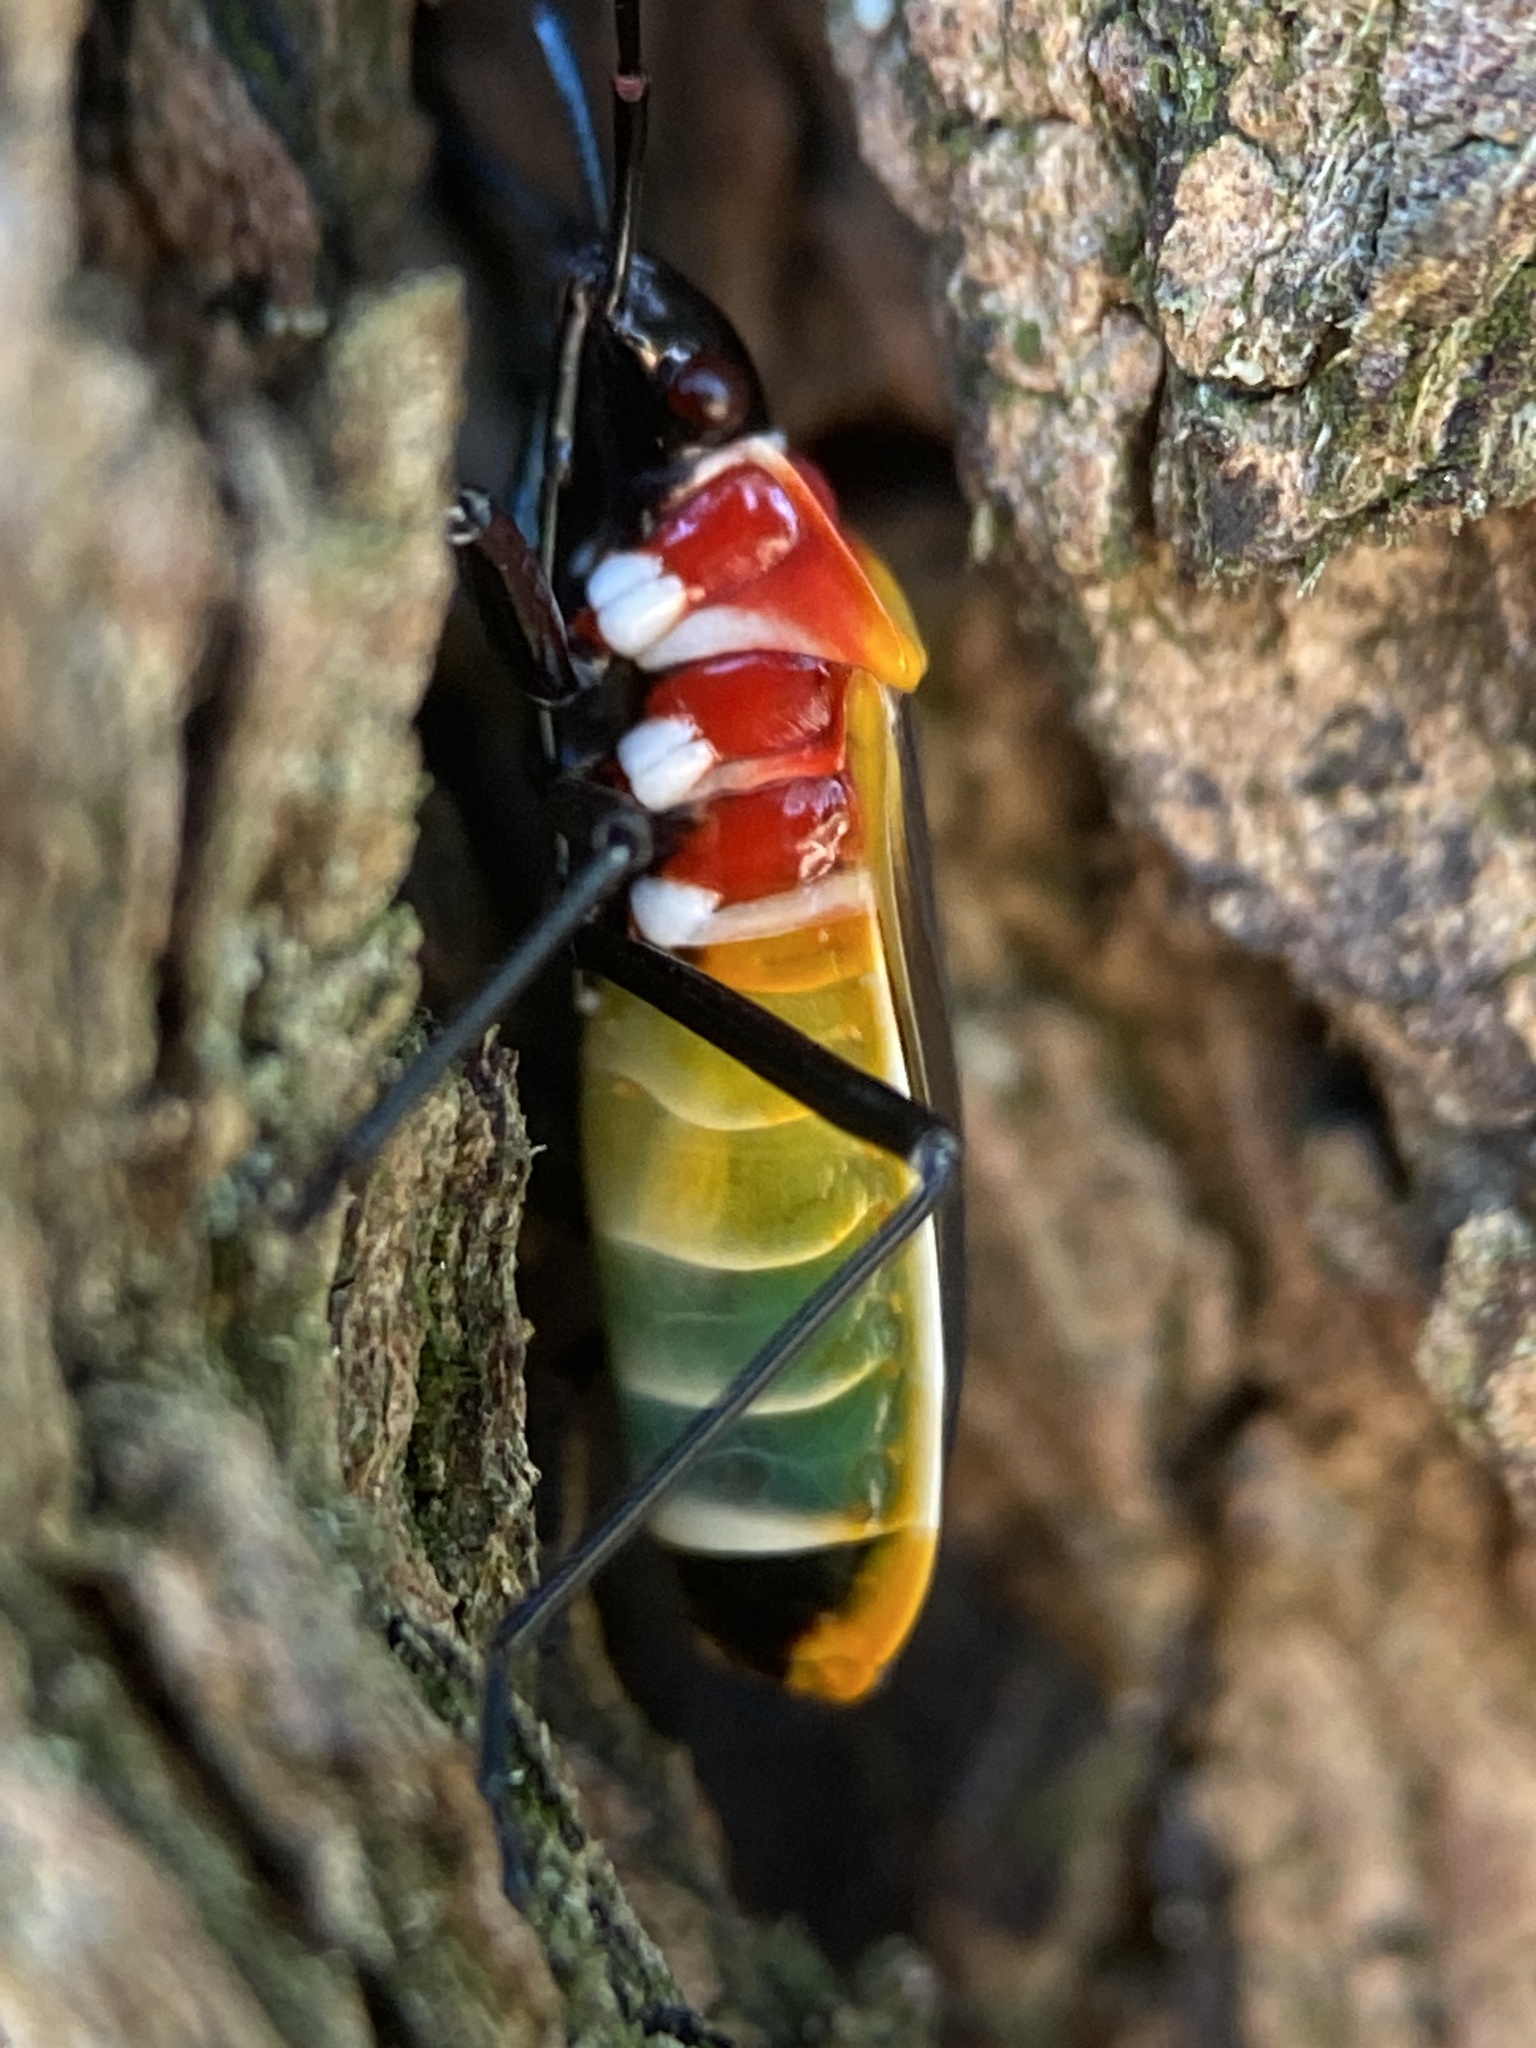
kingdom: Animalia
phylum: Arthropoda
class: Insecta
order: Hemiptera
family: Pyrrhocoridae
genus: Dindymus
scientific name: Dindymus
